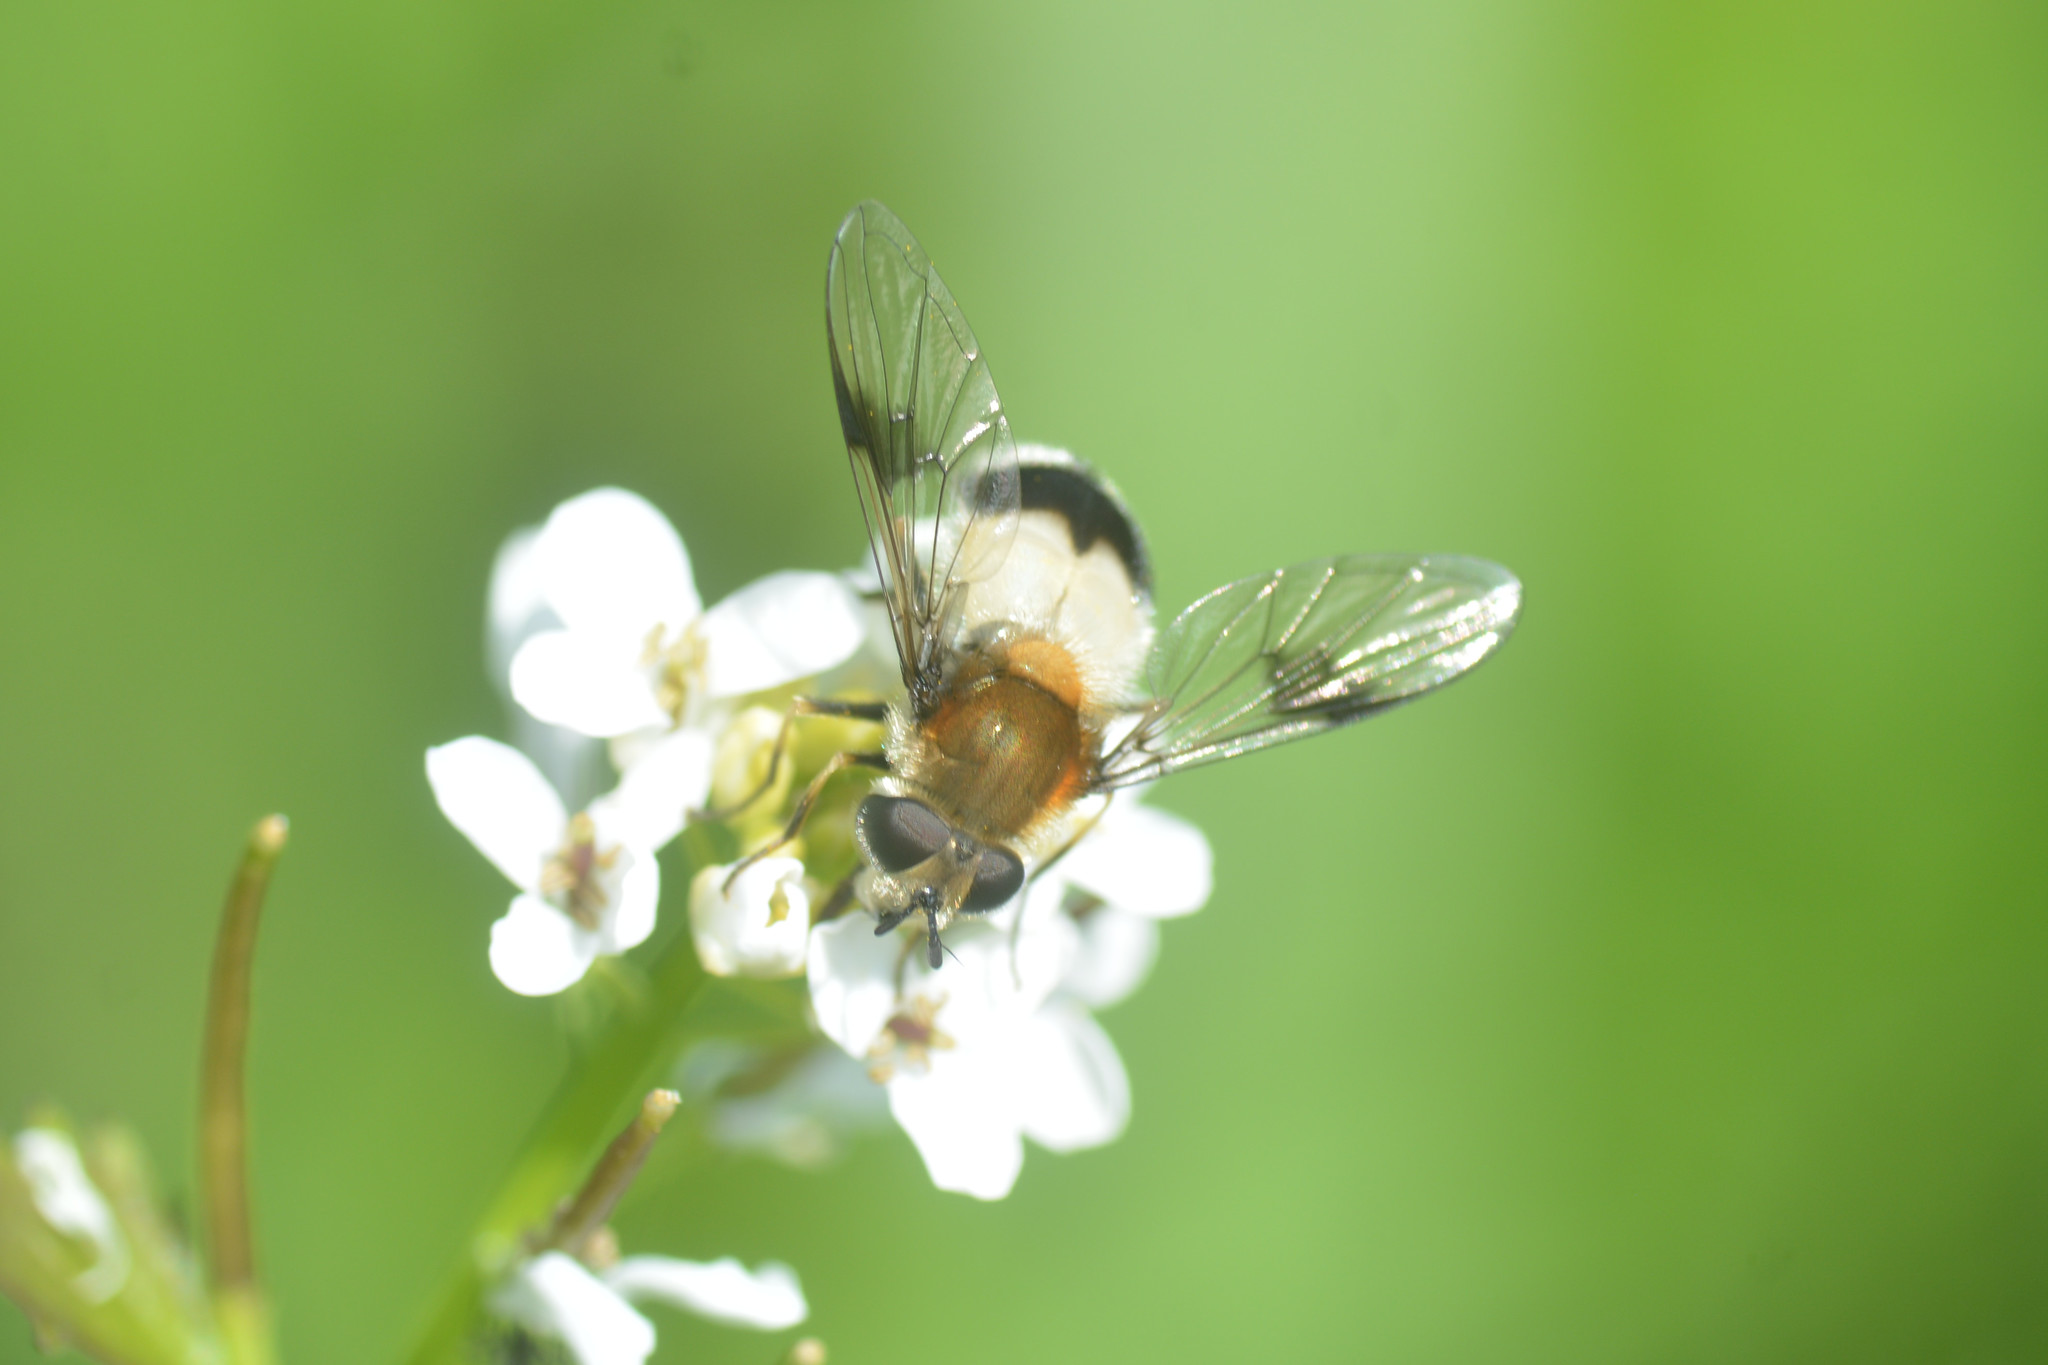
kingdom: Animalia
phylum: Arthropoda
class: Insecta
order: Diptera
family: Syrphidae
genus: Leucozona
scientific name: Leucozona lucorum
